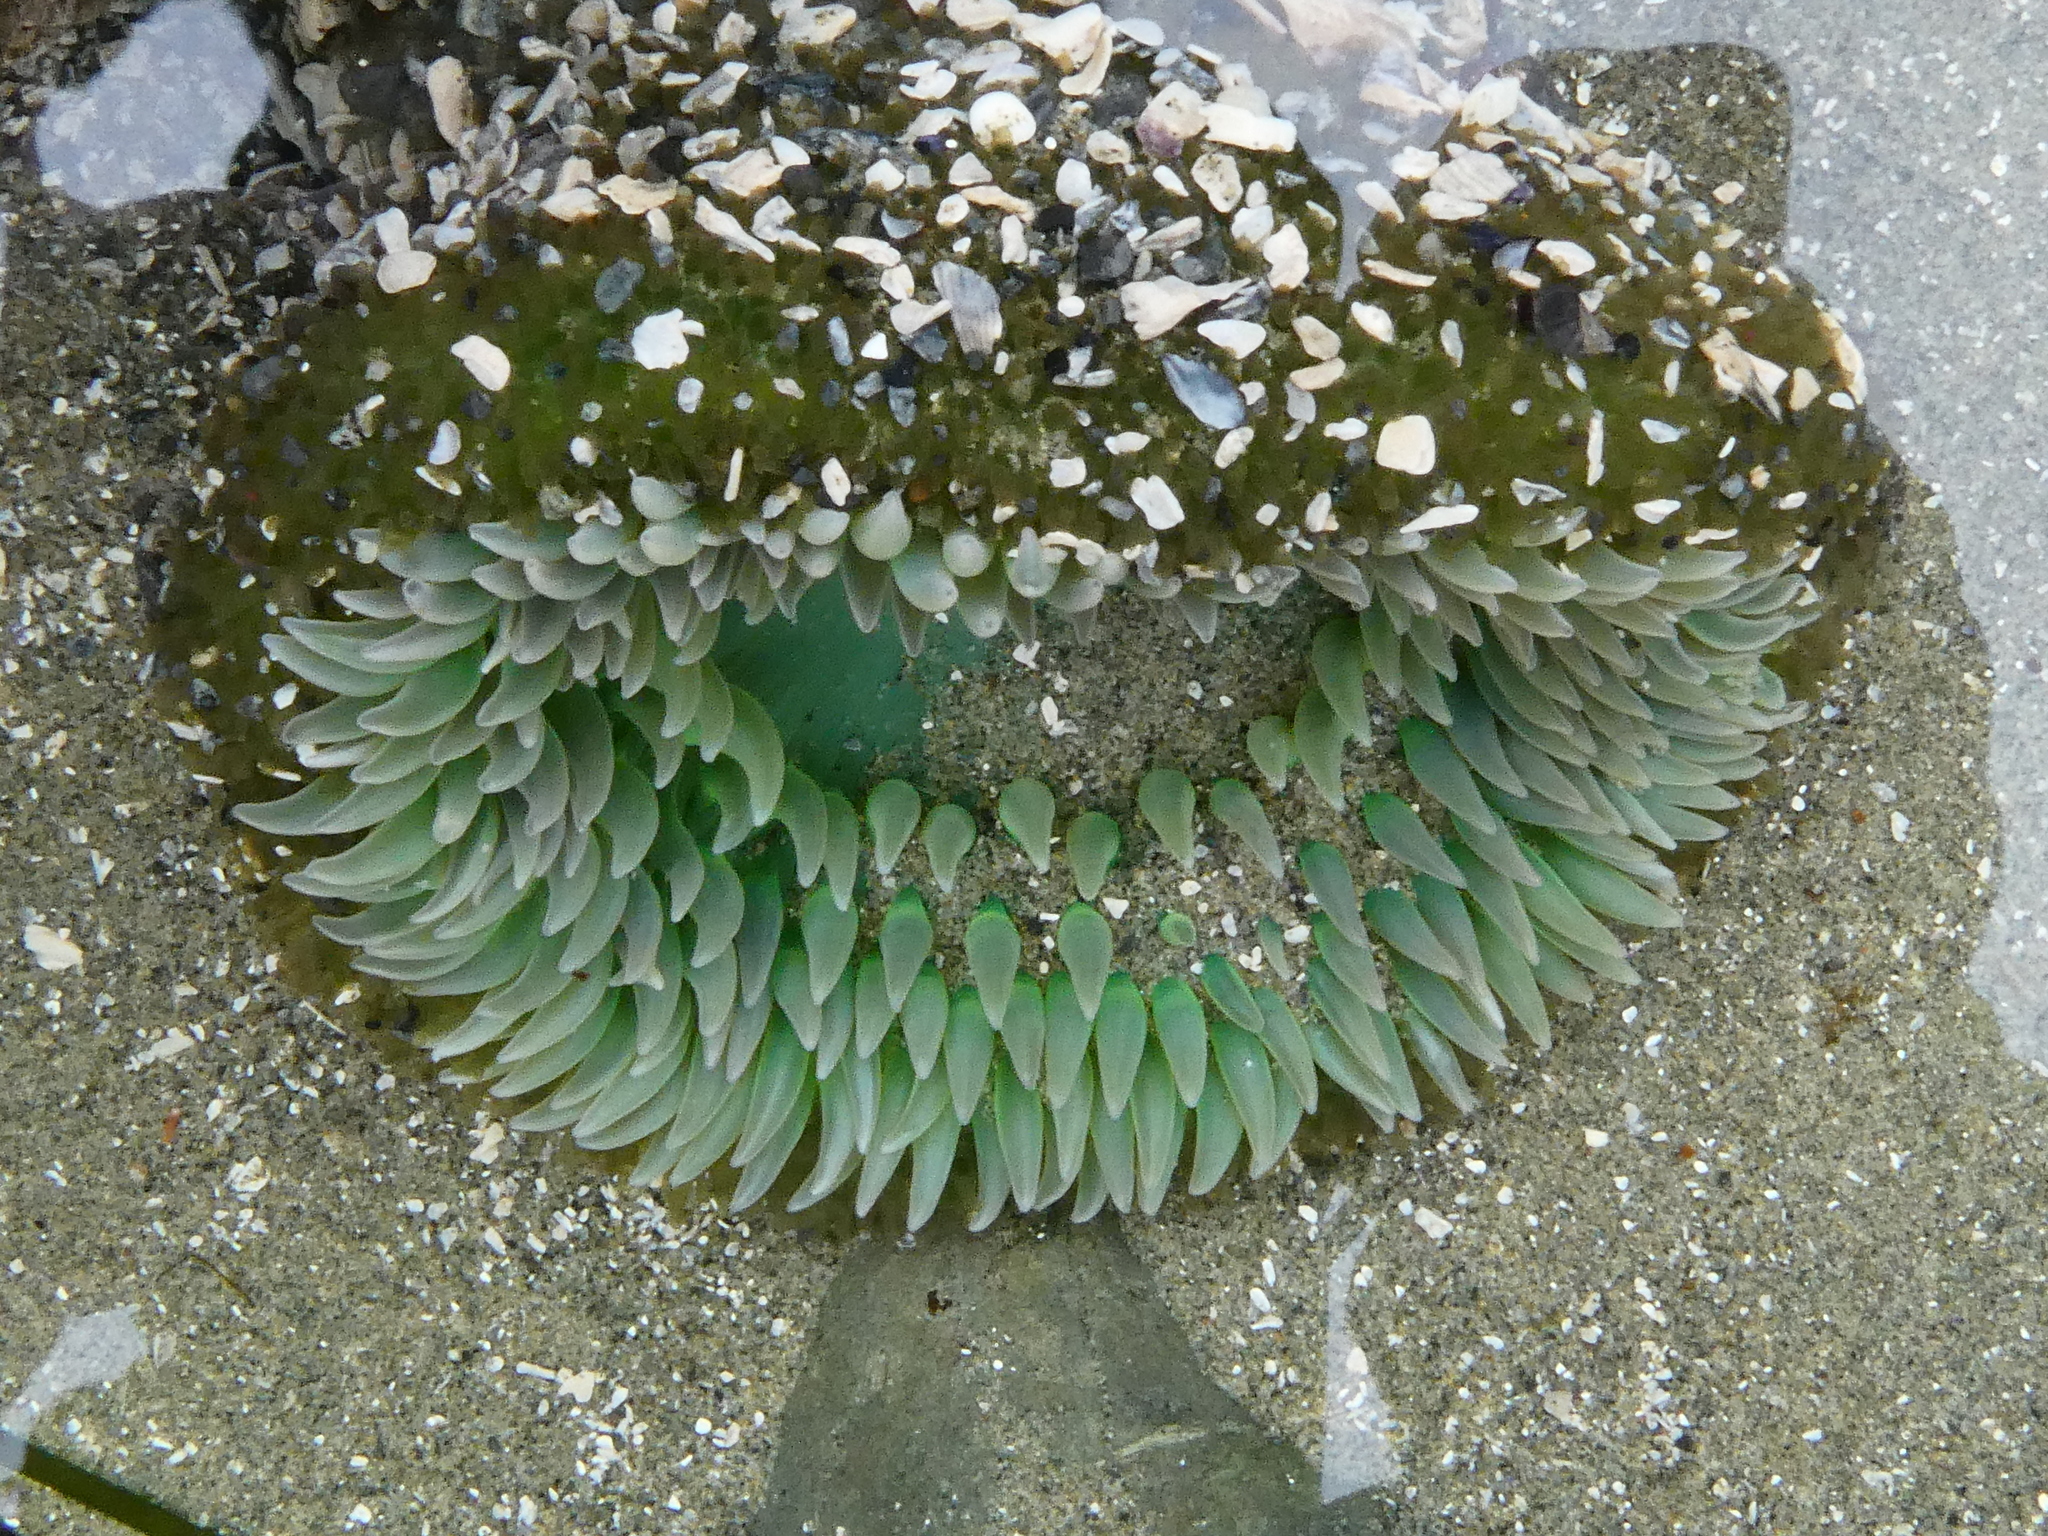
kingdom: Animalia
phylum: Cnidaria
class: Anthozoa
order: Actiniaria
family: Actiniidae
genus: Anthopleura
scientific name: Anthopleura xanthogrammica
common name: Giant green anemone
